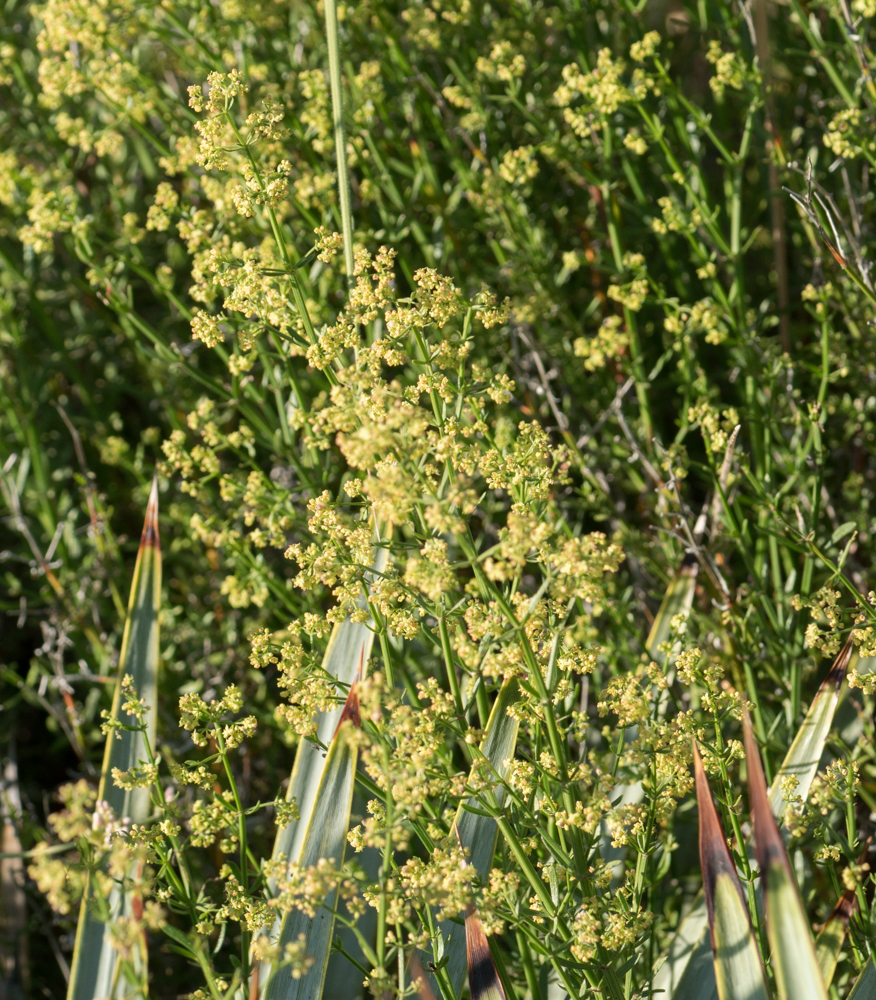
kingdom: Plantae
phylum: Tracheophyta
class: Magnoliopsida
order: Gentianales
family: Rubiaceae
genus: Galium
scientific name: Galium angustifolium
